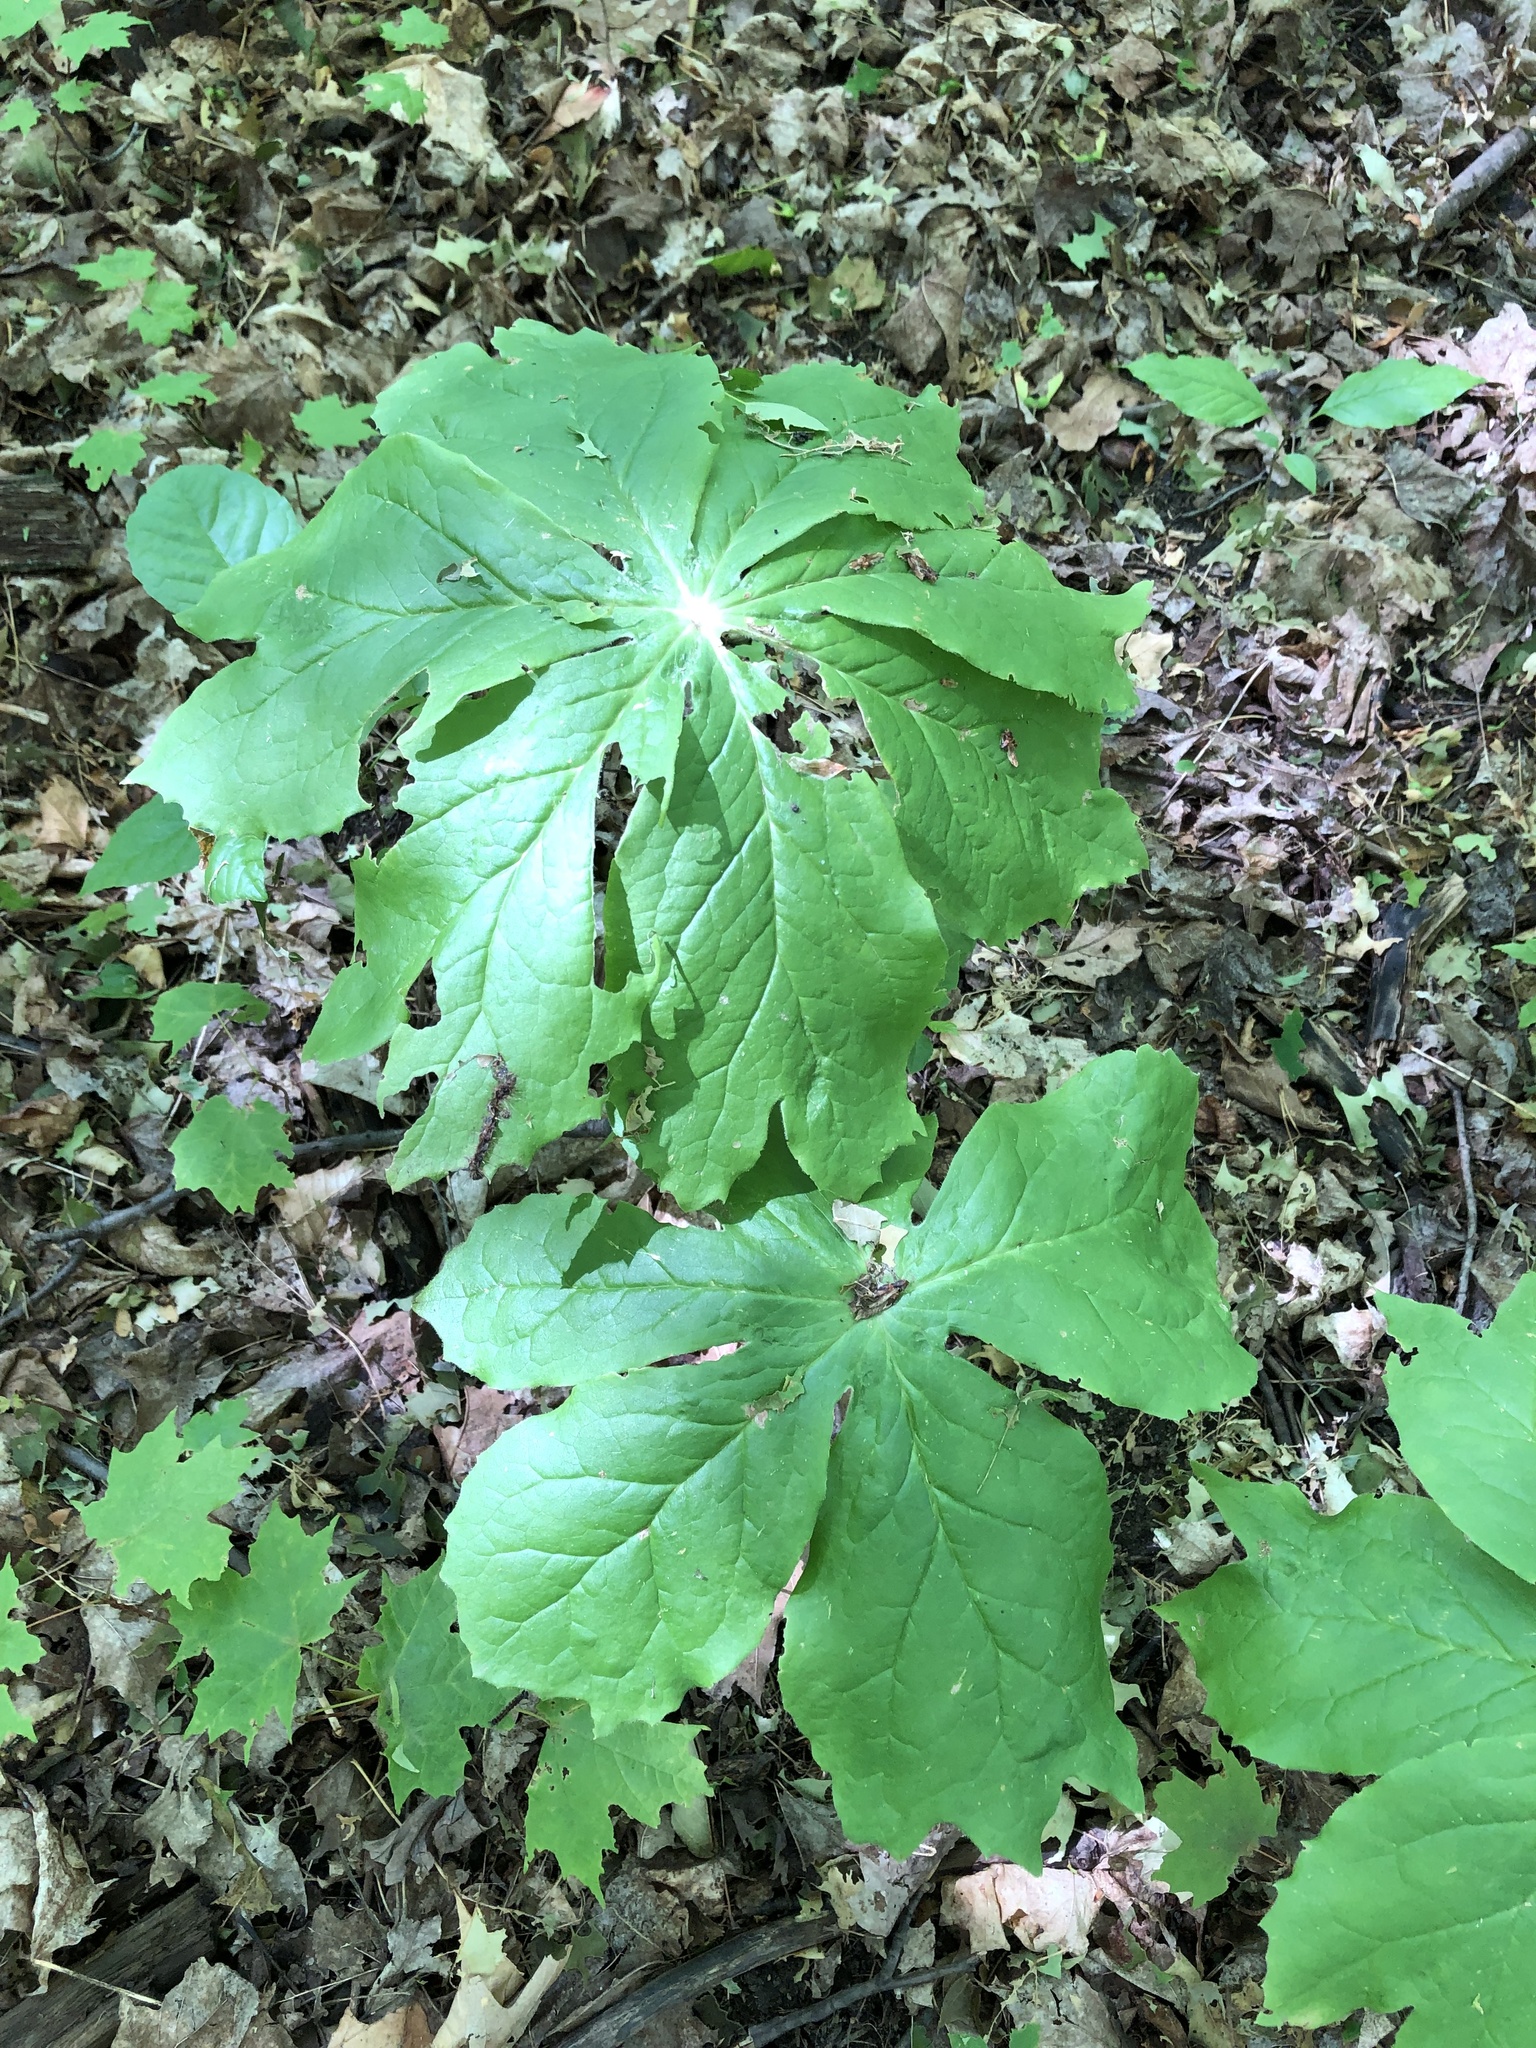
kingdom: Plantae
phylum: Tracheophyta
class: Magnoliopsida
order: Ranunculales
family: Berberidaceae
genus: Podophyllum
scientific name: Podophyllum peltatum
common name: Wild mandrake
